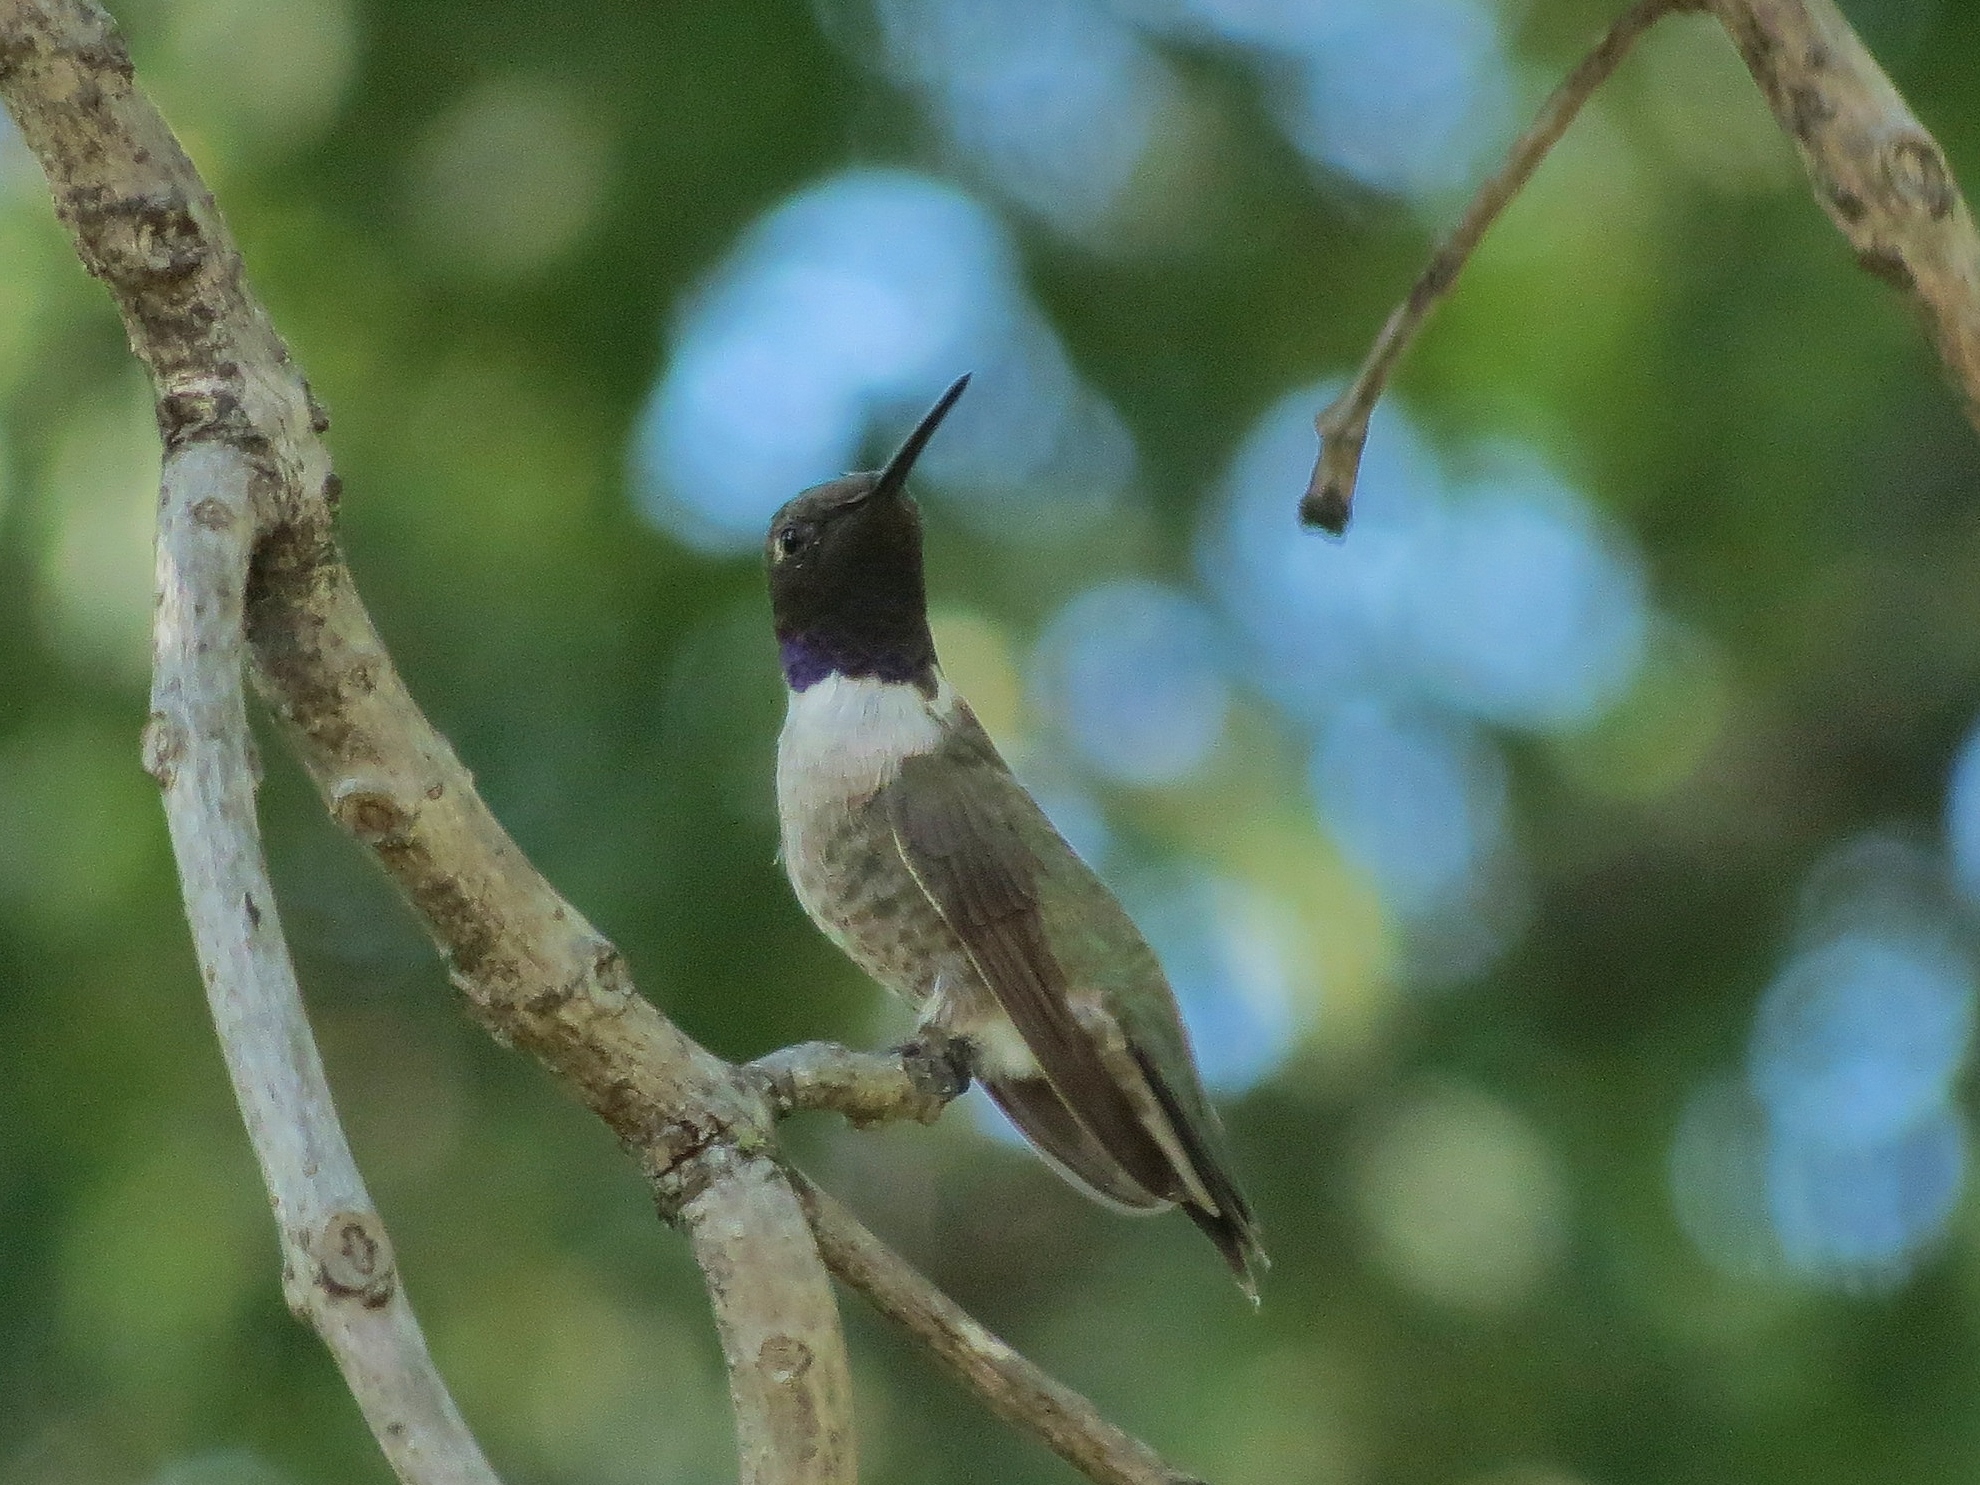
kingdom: Animalia
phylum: Chordata
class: Aves
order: Apodiformes
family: Trochilidae
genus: Archilochus
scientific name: Archilochus alexandri
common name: Black-chinned hummingbird
